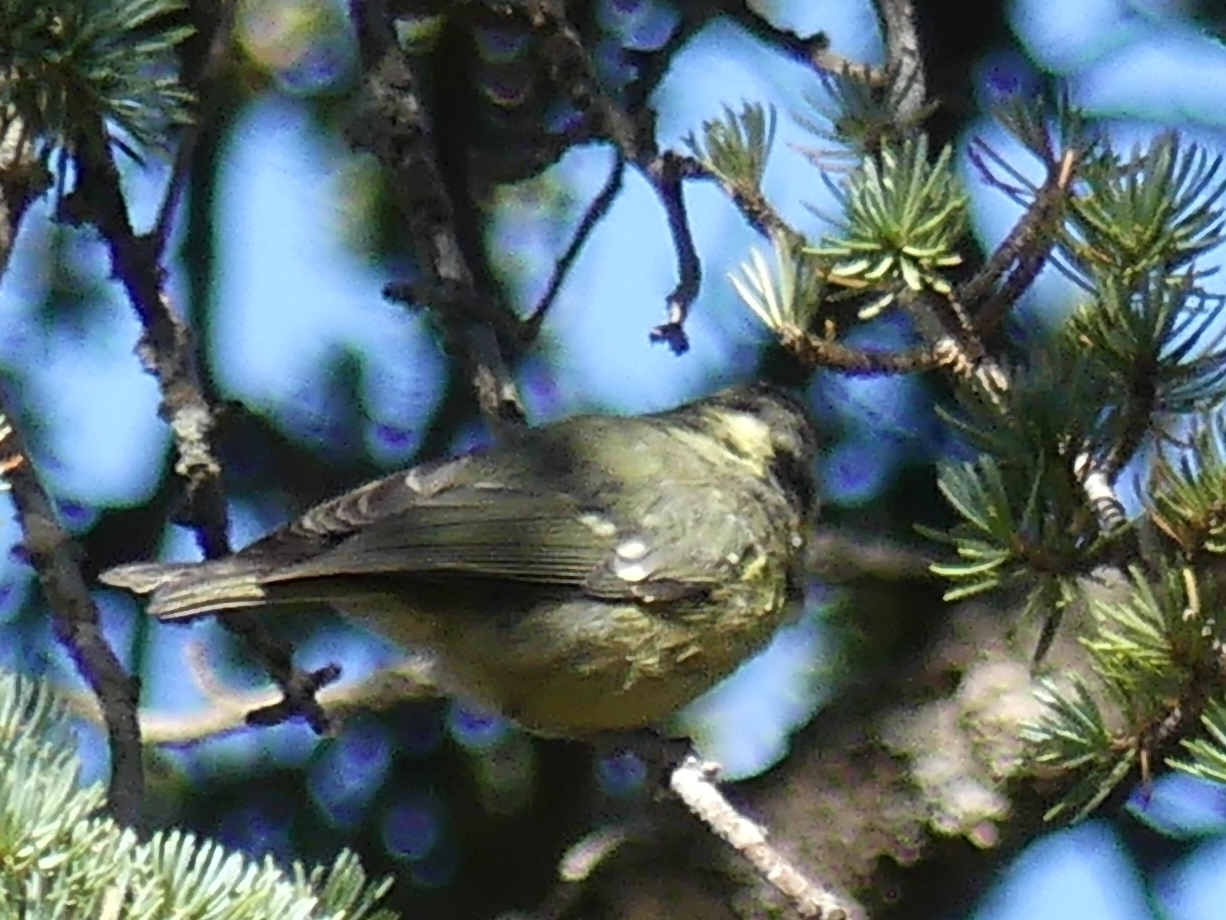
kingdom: Animalia
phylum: Chordata
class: Aves
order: Passeriformes
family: Paridae
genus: Periparus
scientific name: Periparus ater
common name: Coal tit
